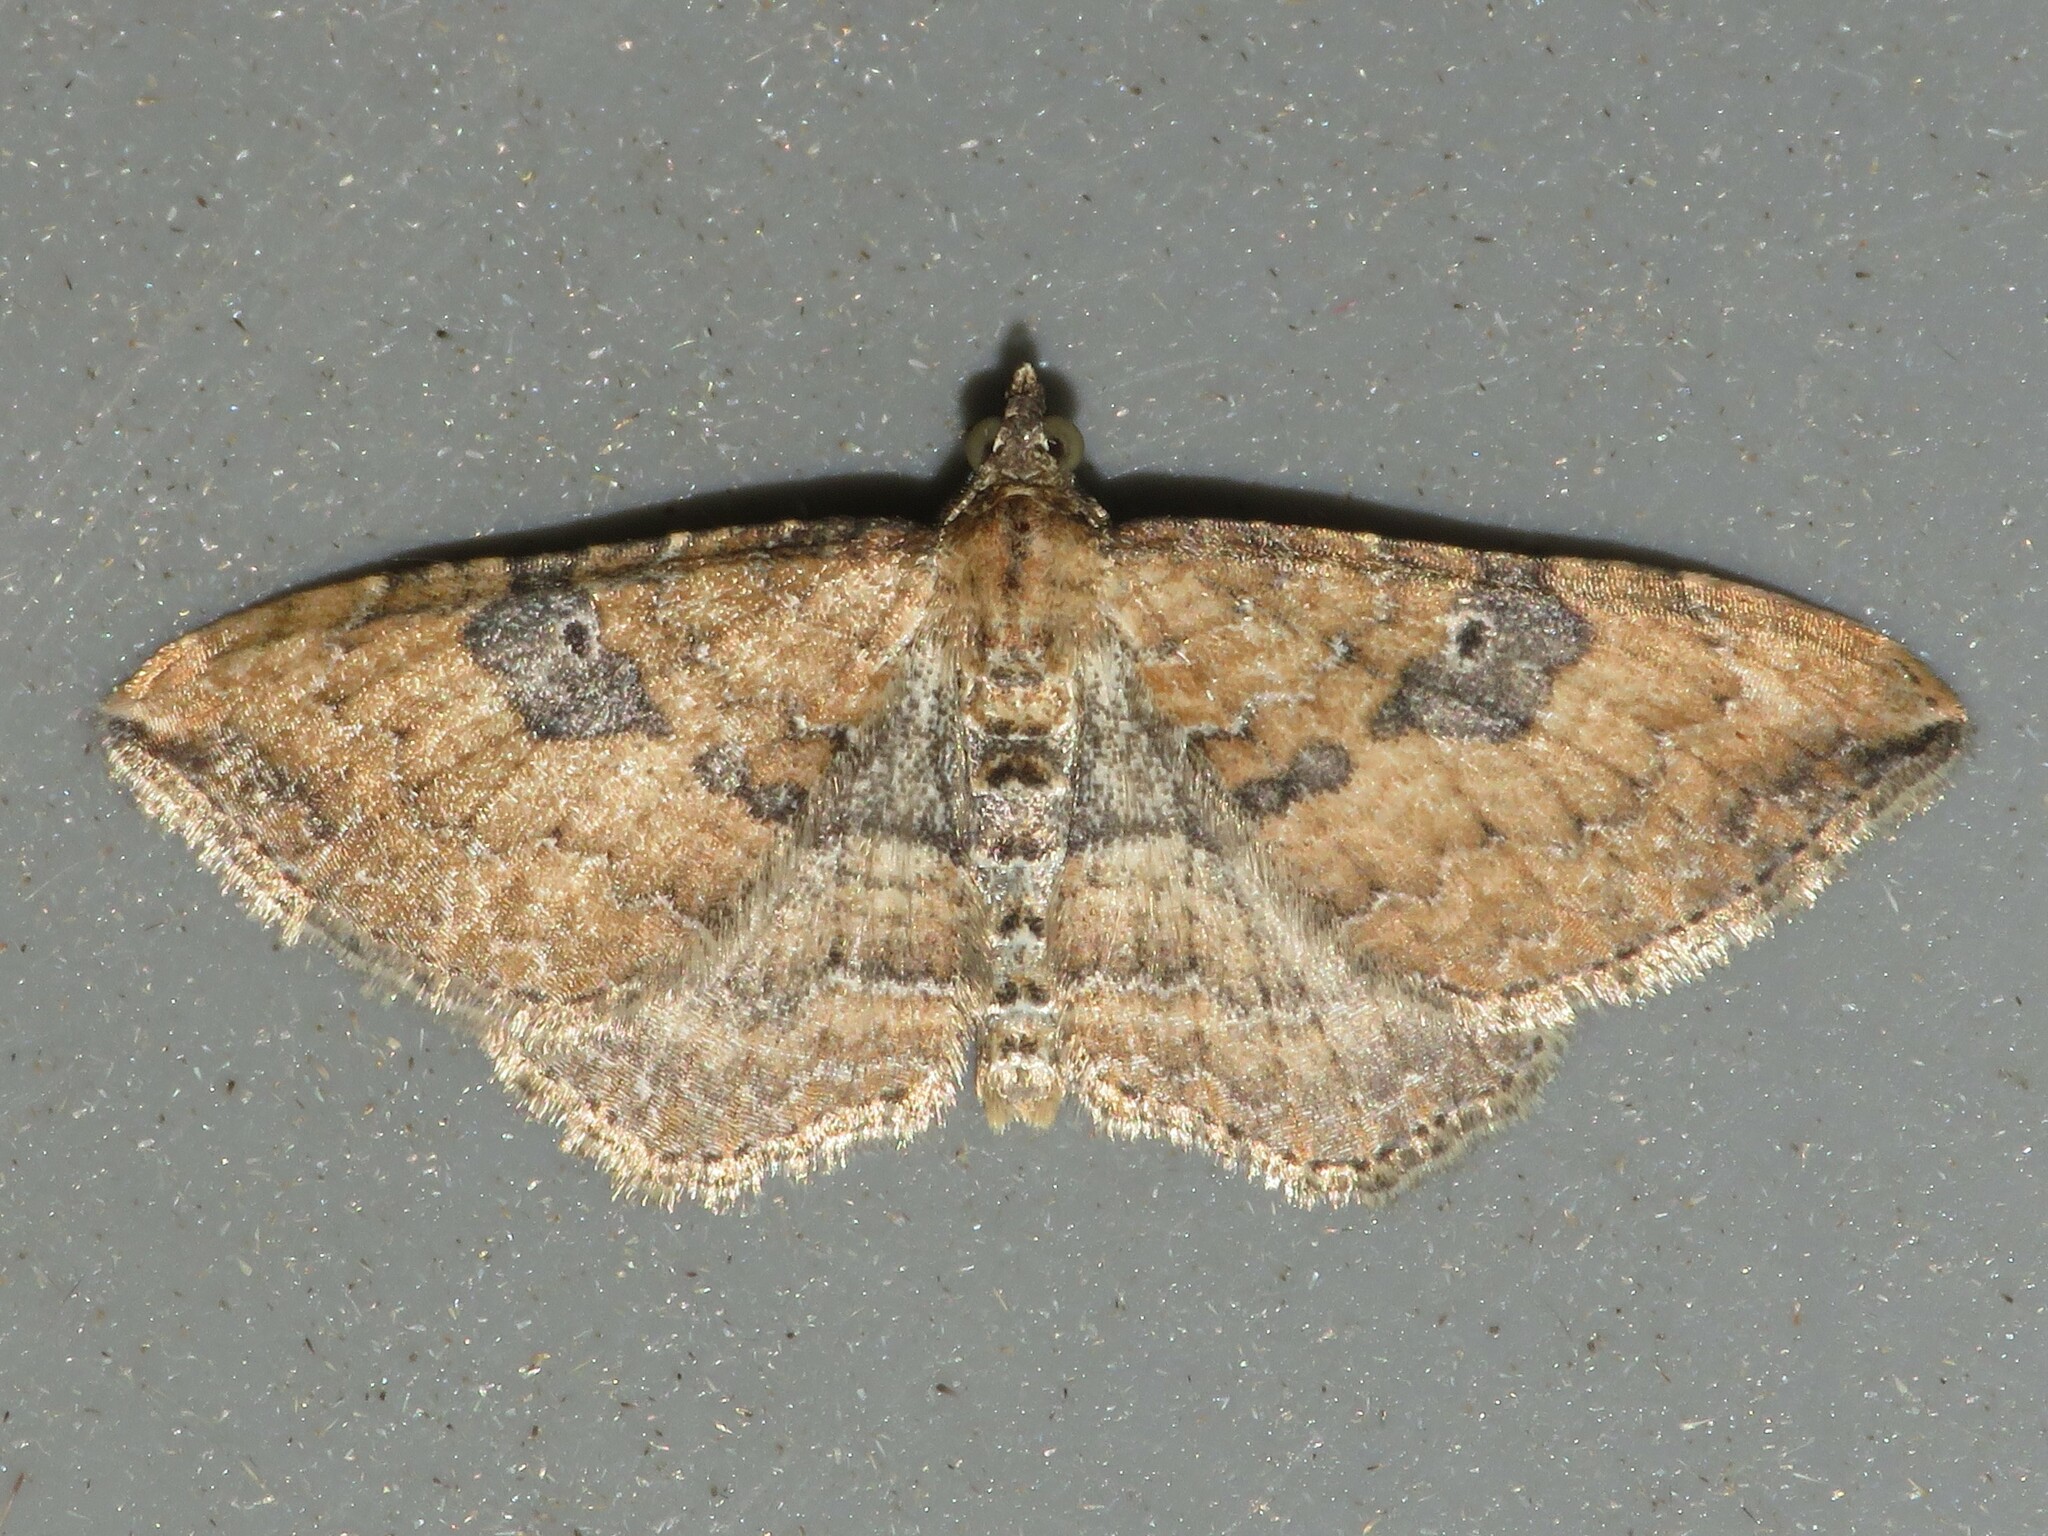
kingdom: Animalia
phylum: Arthropoda
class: Insecta
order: Lepidoptera
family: Geometridae
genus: Orthonama
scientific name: Orthonama obstipata
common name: The gem
